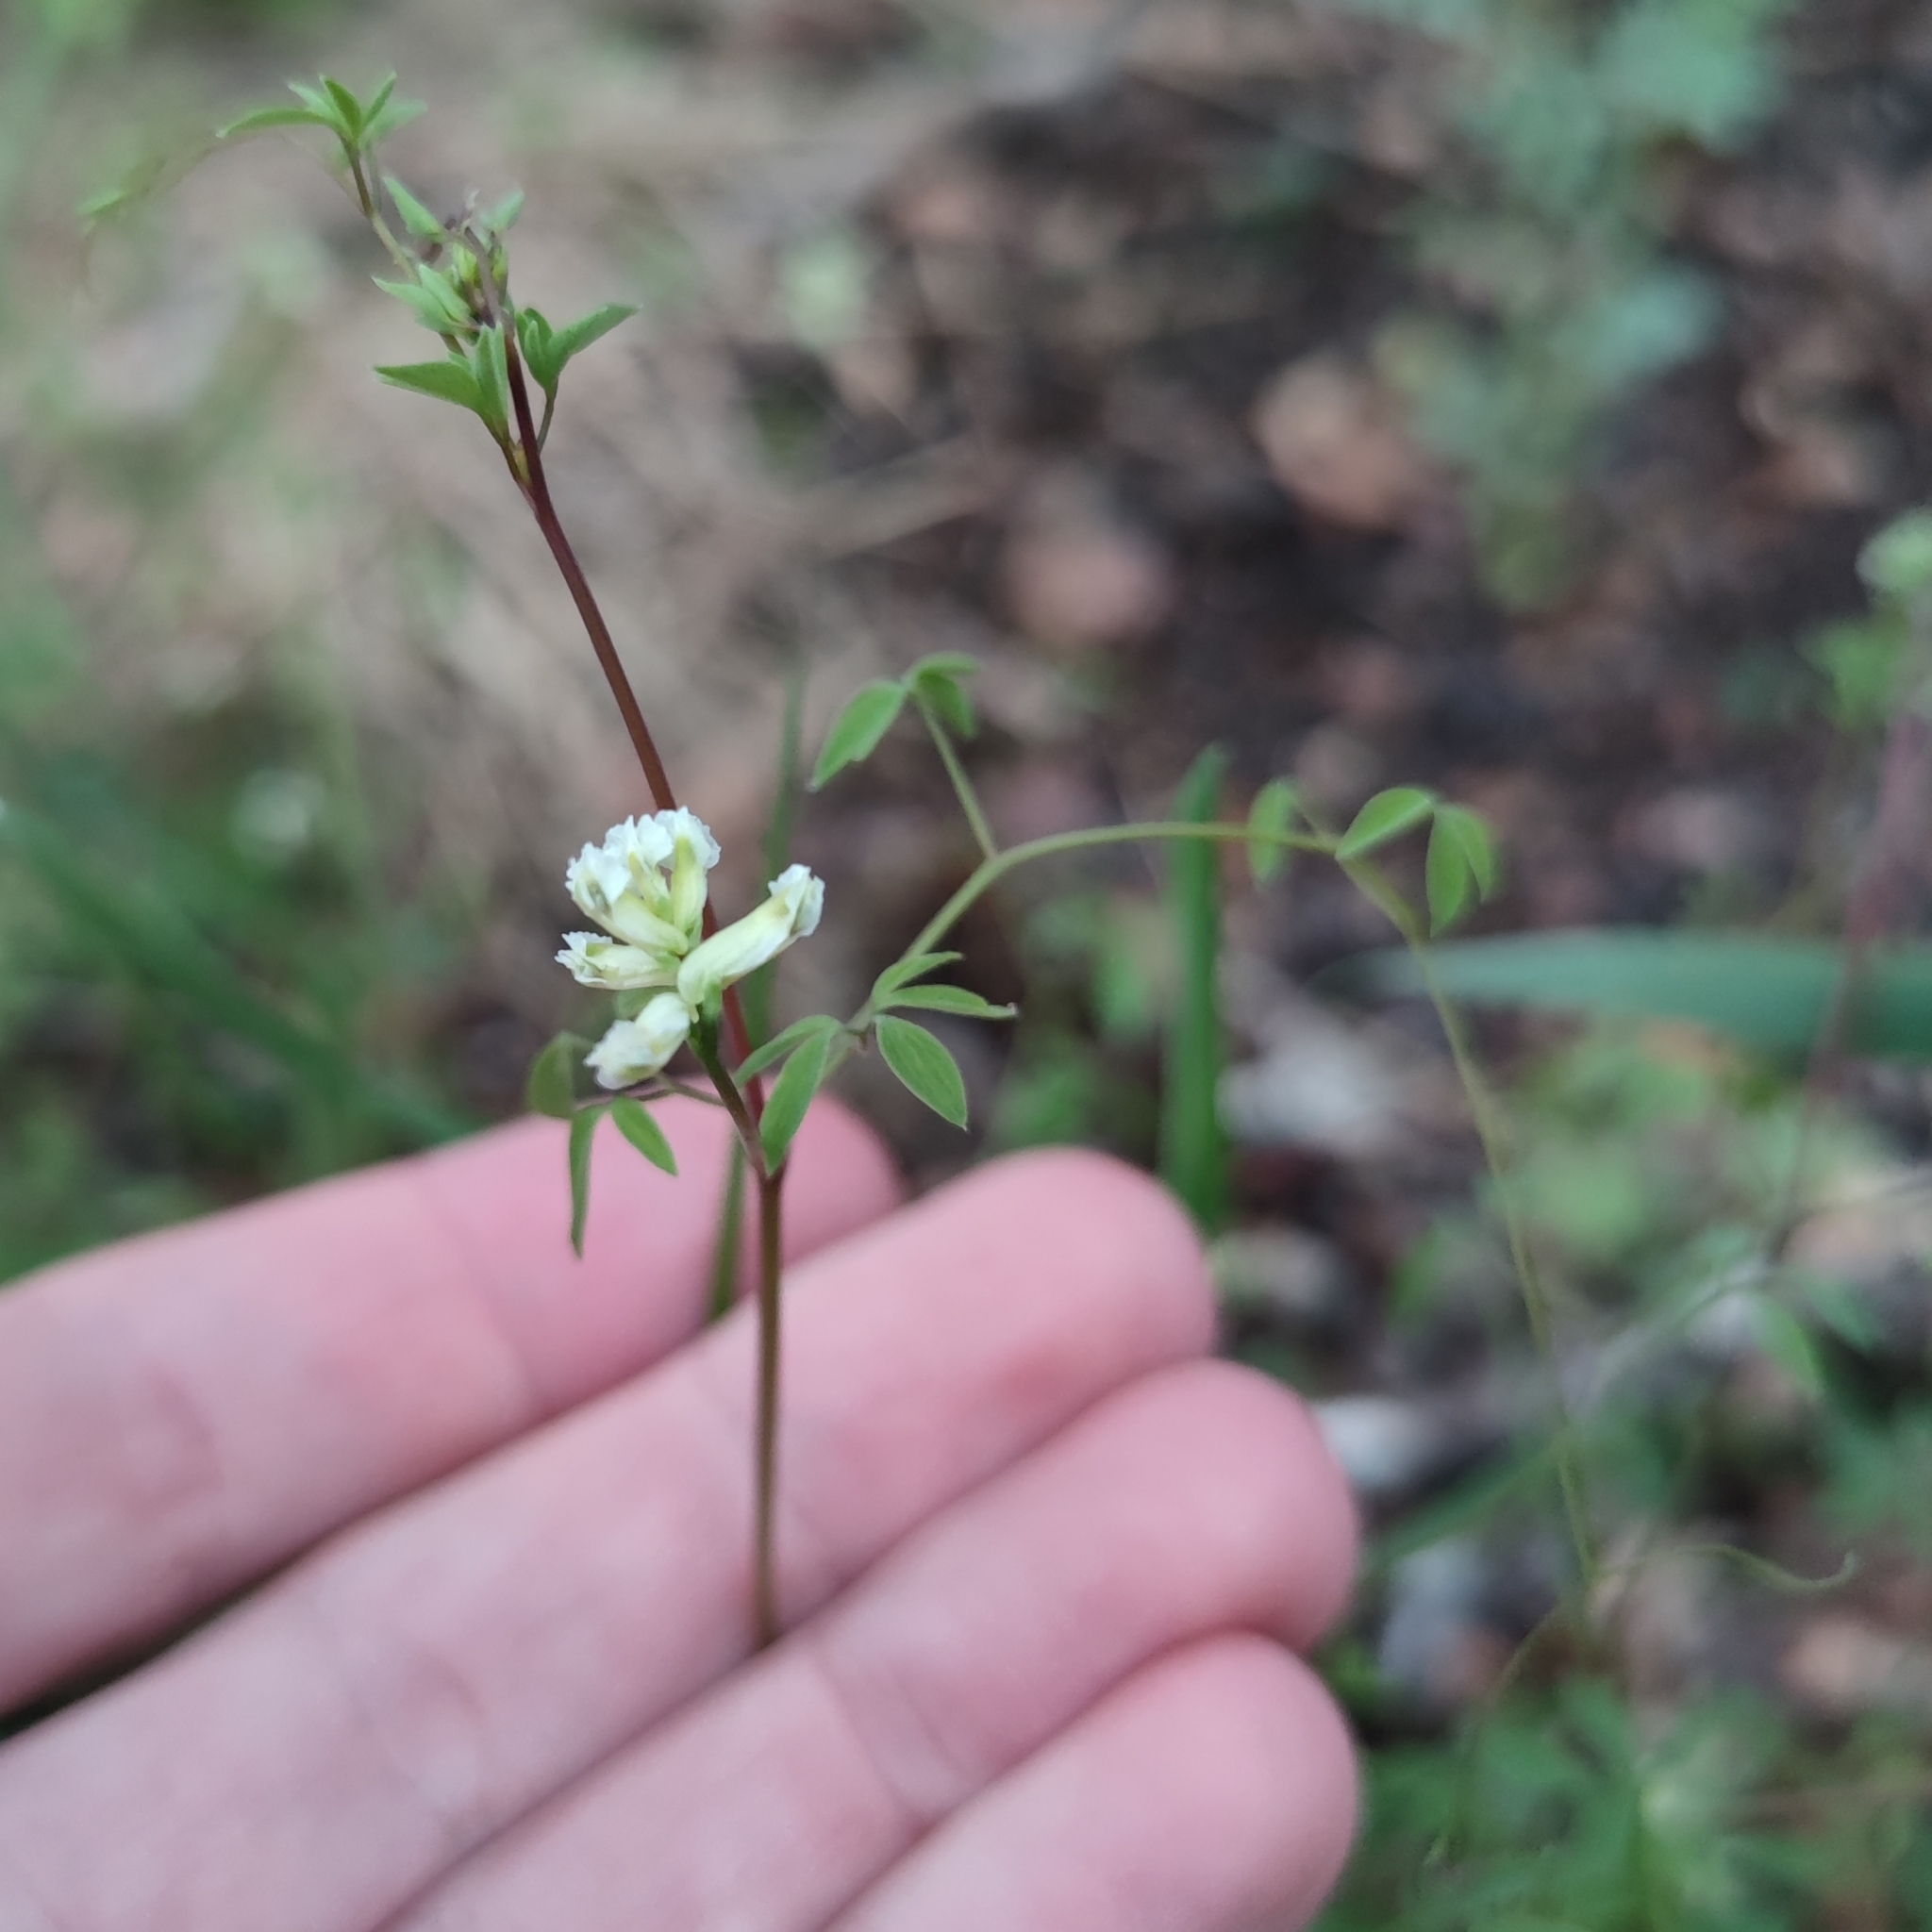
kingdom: Plantae
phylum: Tracheophyta
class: Magnoliopsida
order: Ranunculales
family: Papaveraceae
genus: Ceratocapnos
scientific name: Ceratocapnos claviculata
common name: Climbing corydalis
